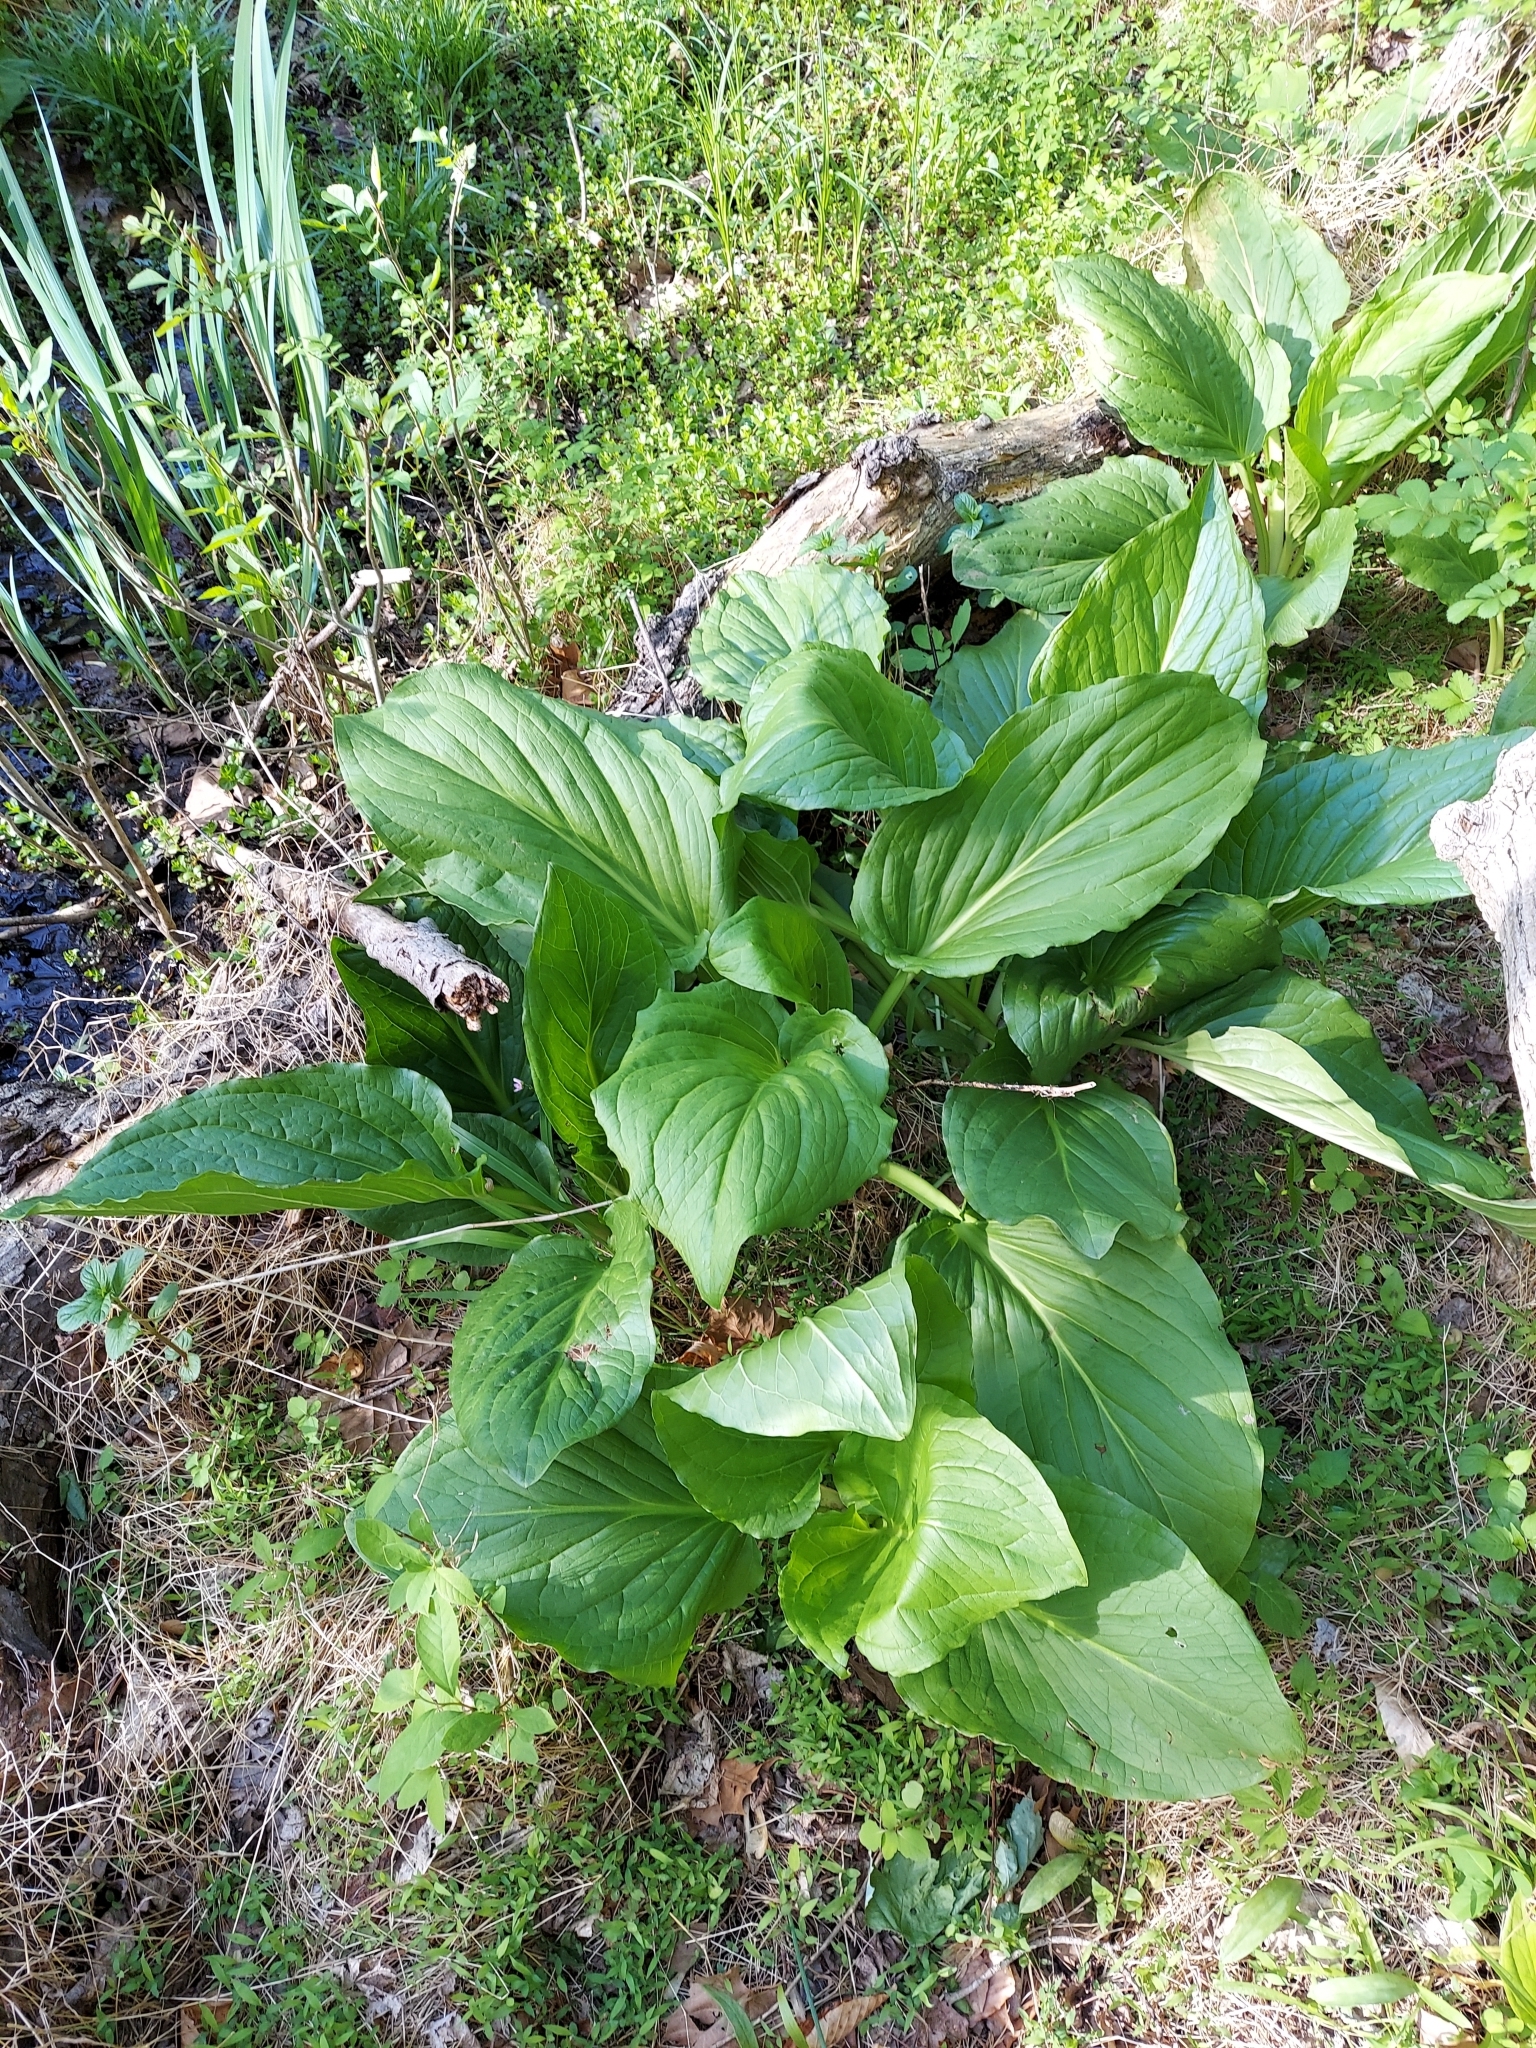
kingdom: Plantae
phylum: Tracheophyta
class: Liliopsida
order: Alismatales
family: Araceae
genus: Symplocarpus
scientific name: Symplocarpus foetidus
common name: Eastern skunk cabbage
